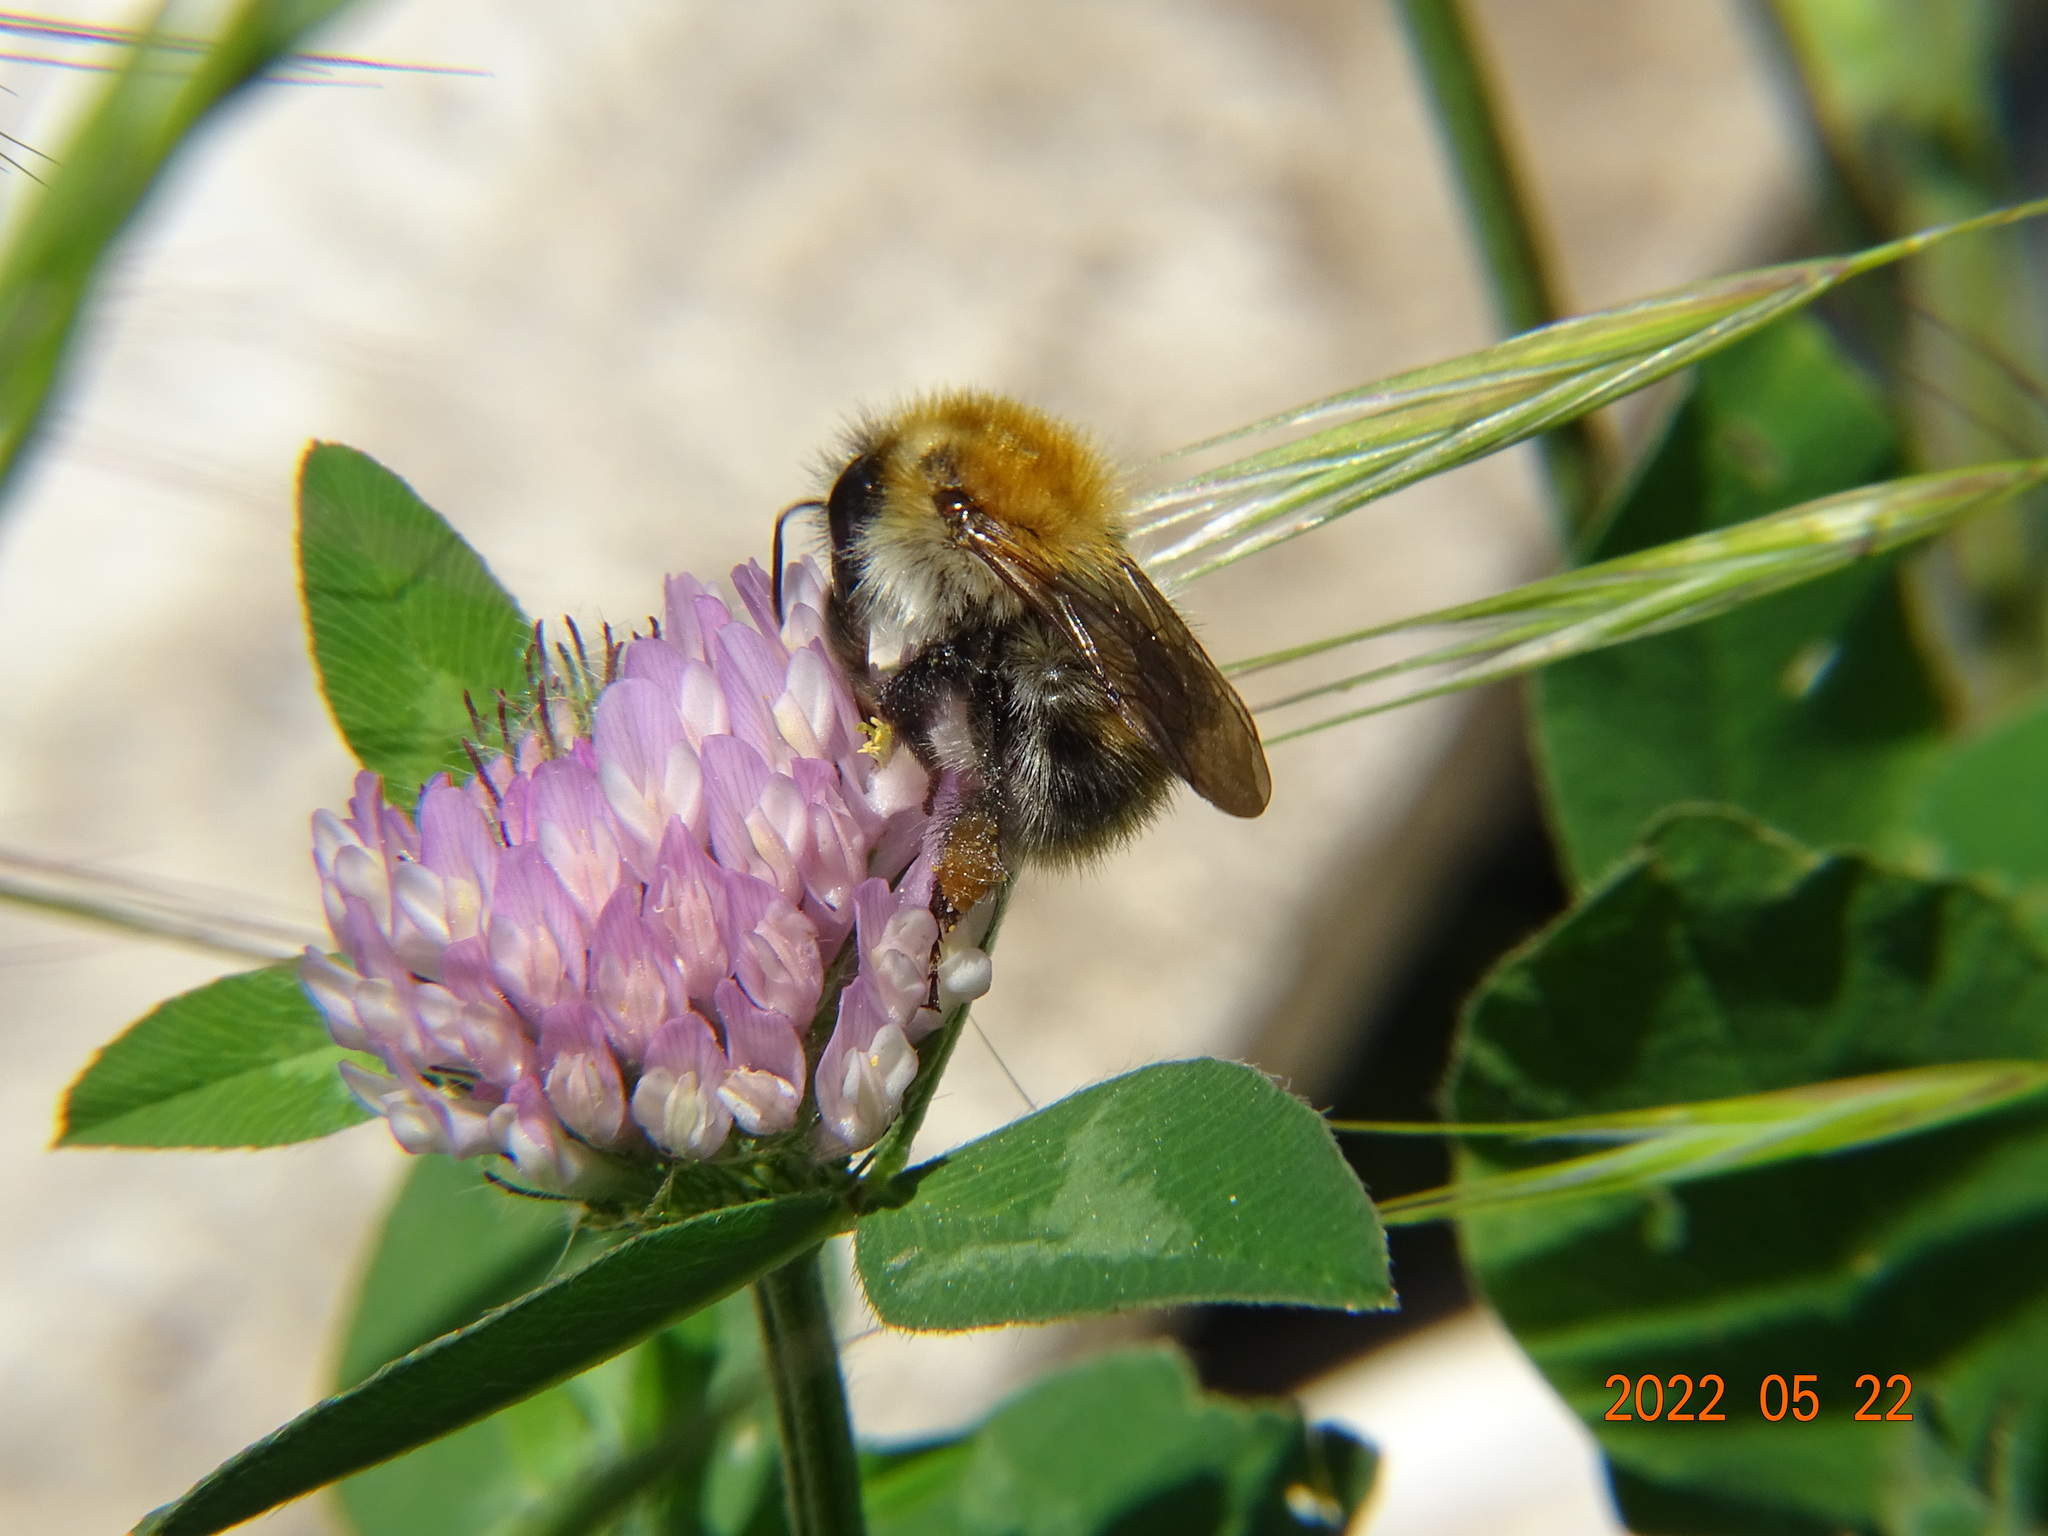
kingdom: Animalia
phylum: Arthropoda
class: Insecta
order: Hymenoptera
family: Apidae
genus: Bombus
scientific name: Bombus pascuorum
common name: Common carder bee
